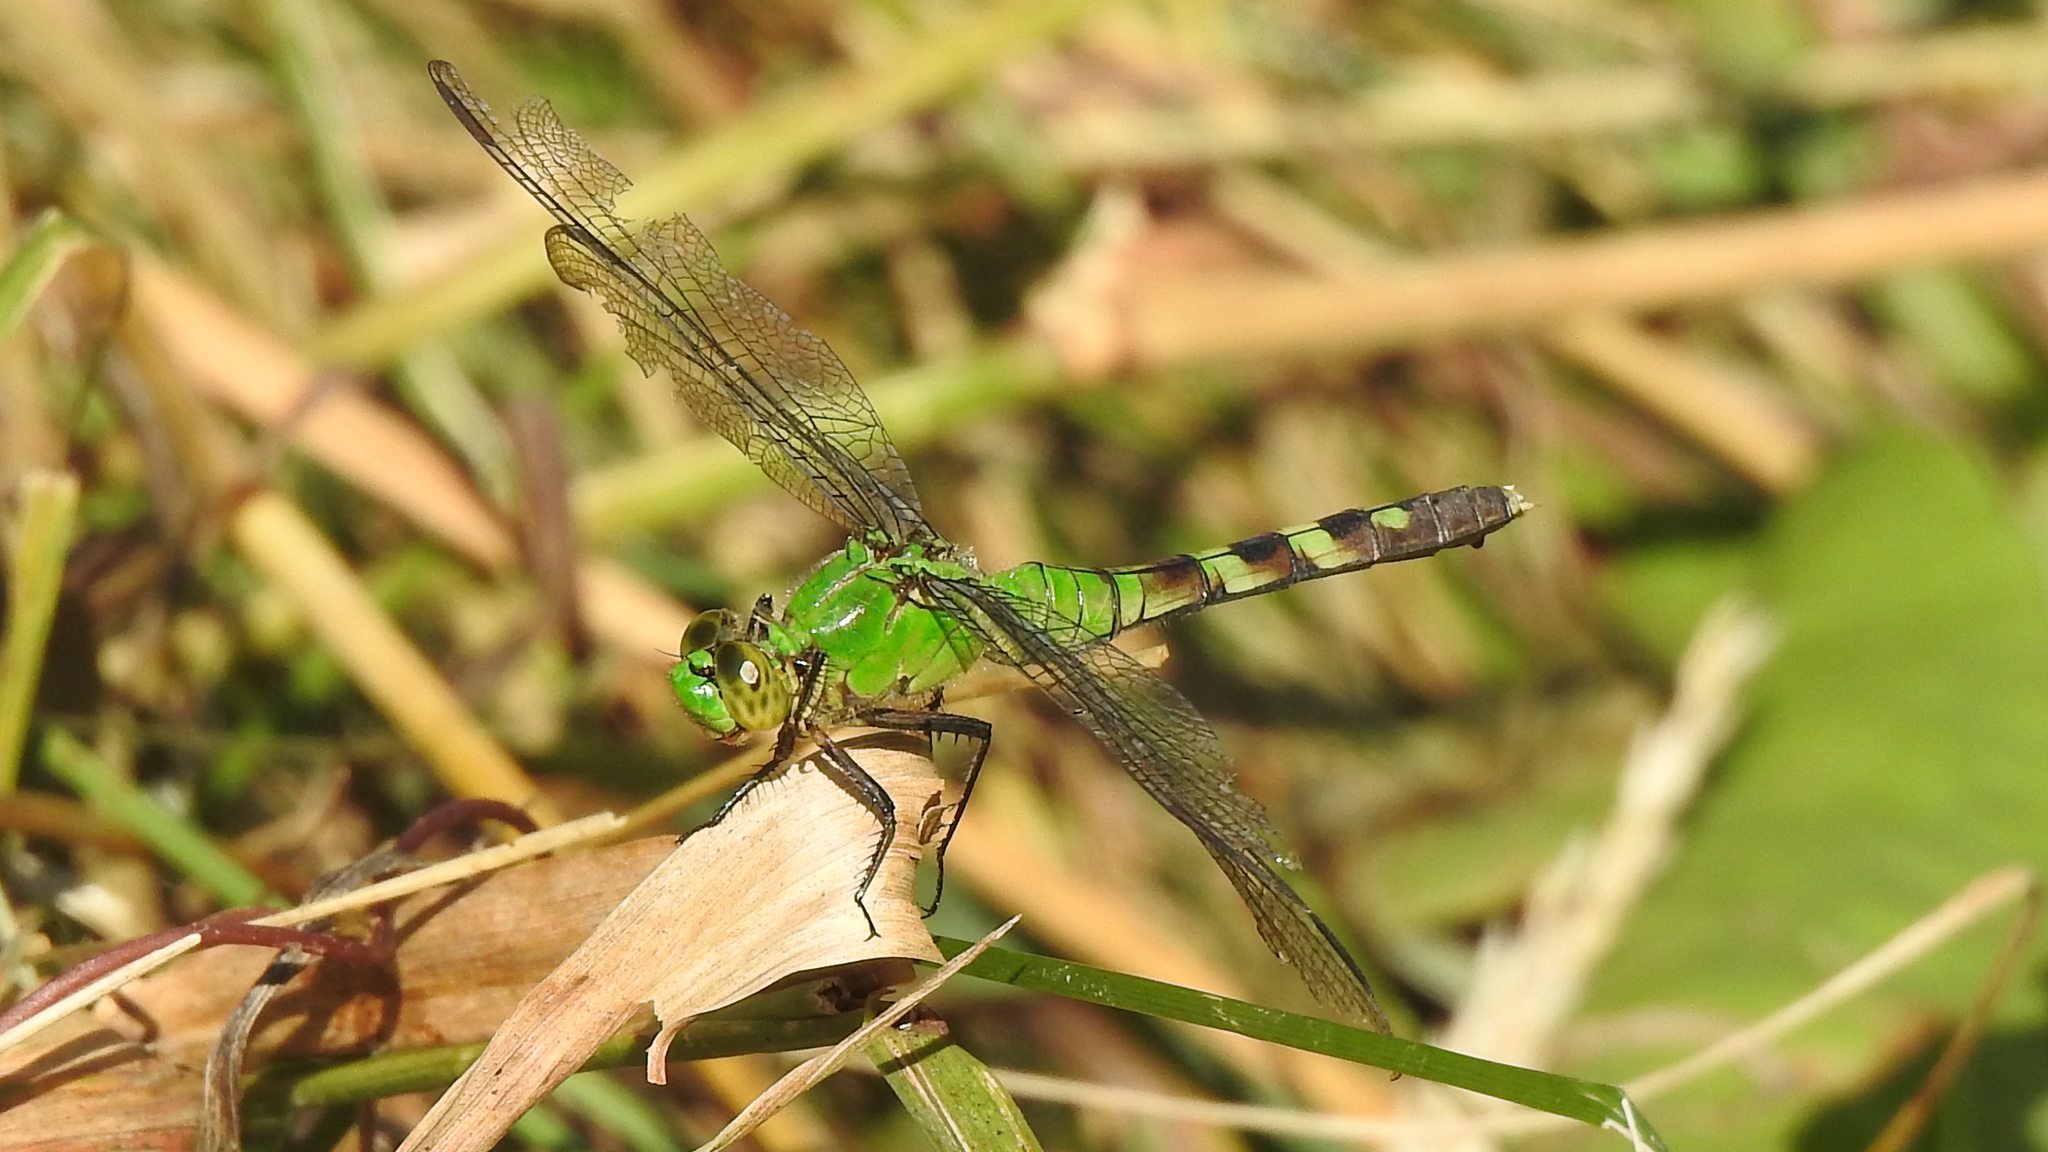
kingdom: Animalia
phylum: Arthropoda
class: Insecta
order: Odonata
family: Libellulidae
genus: Erythemis
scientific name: Erythemis simplicicollis
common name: Eastern pondhawk
